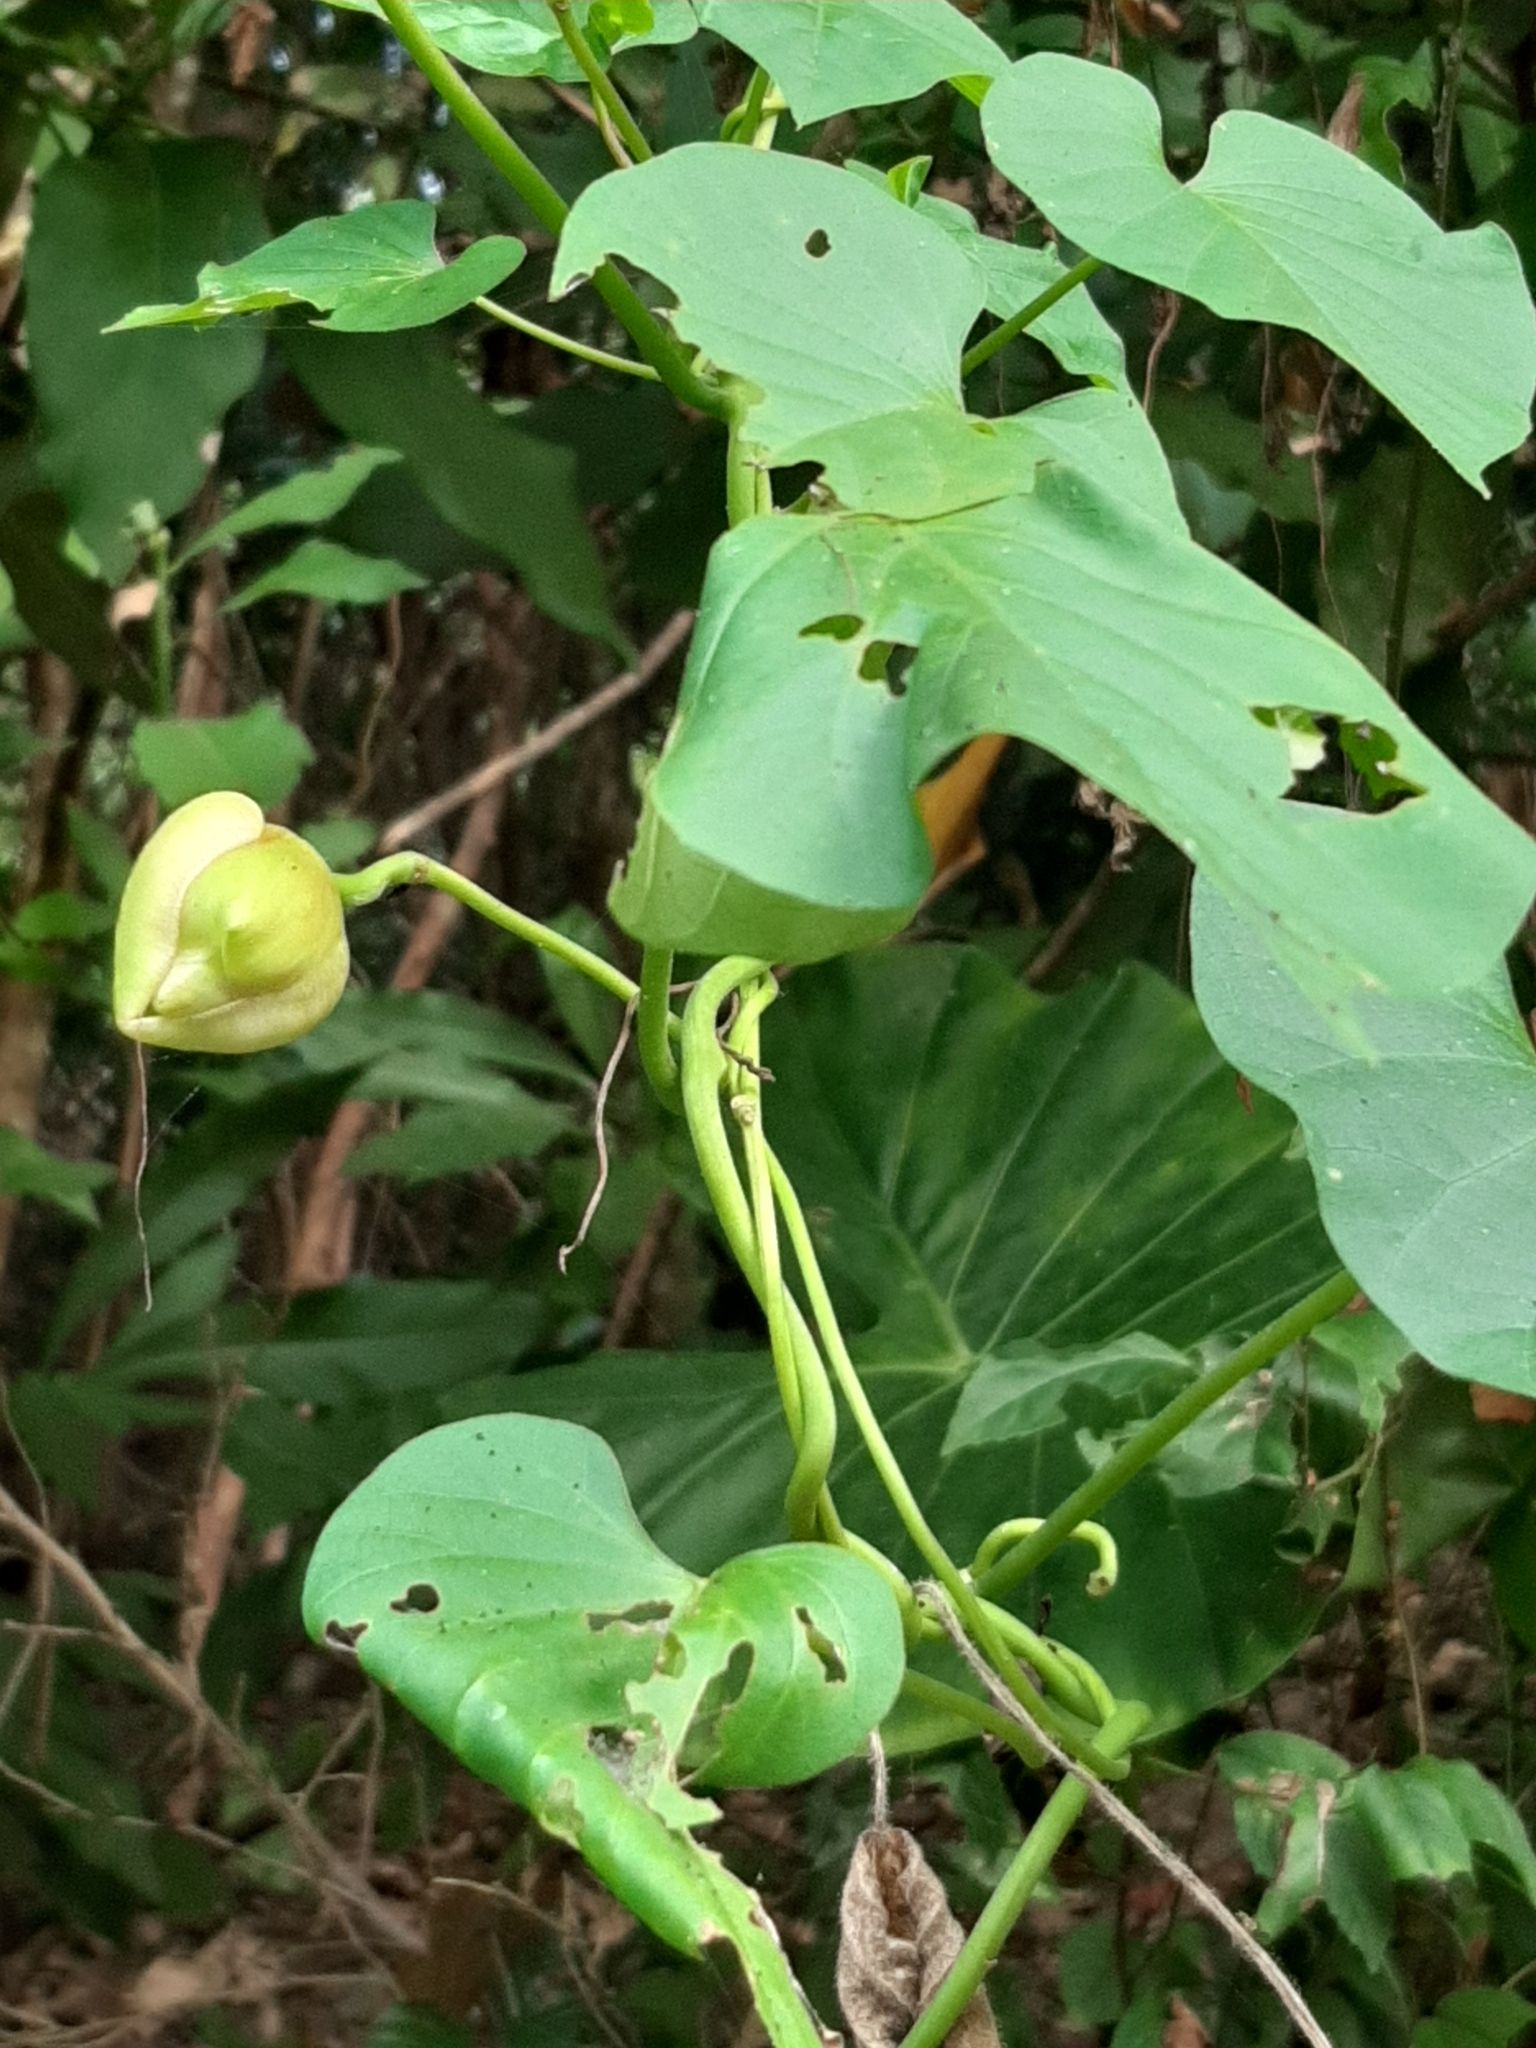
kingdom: Plantae
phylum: Tracheophyta
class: Magnoliopsida
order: Solanales
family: Convolvulaceae
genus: Stictocardia
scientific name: Stictocardia tiliifolia
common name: Spottedheart
